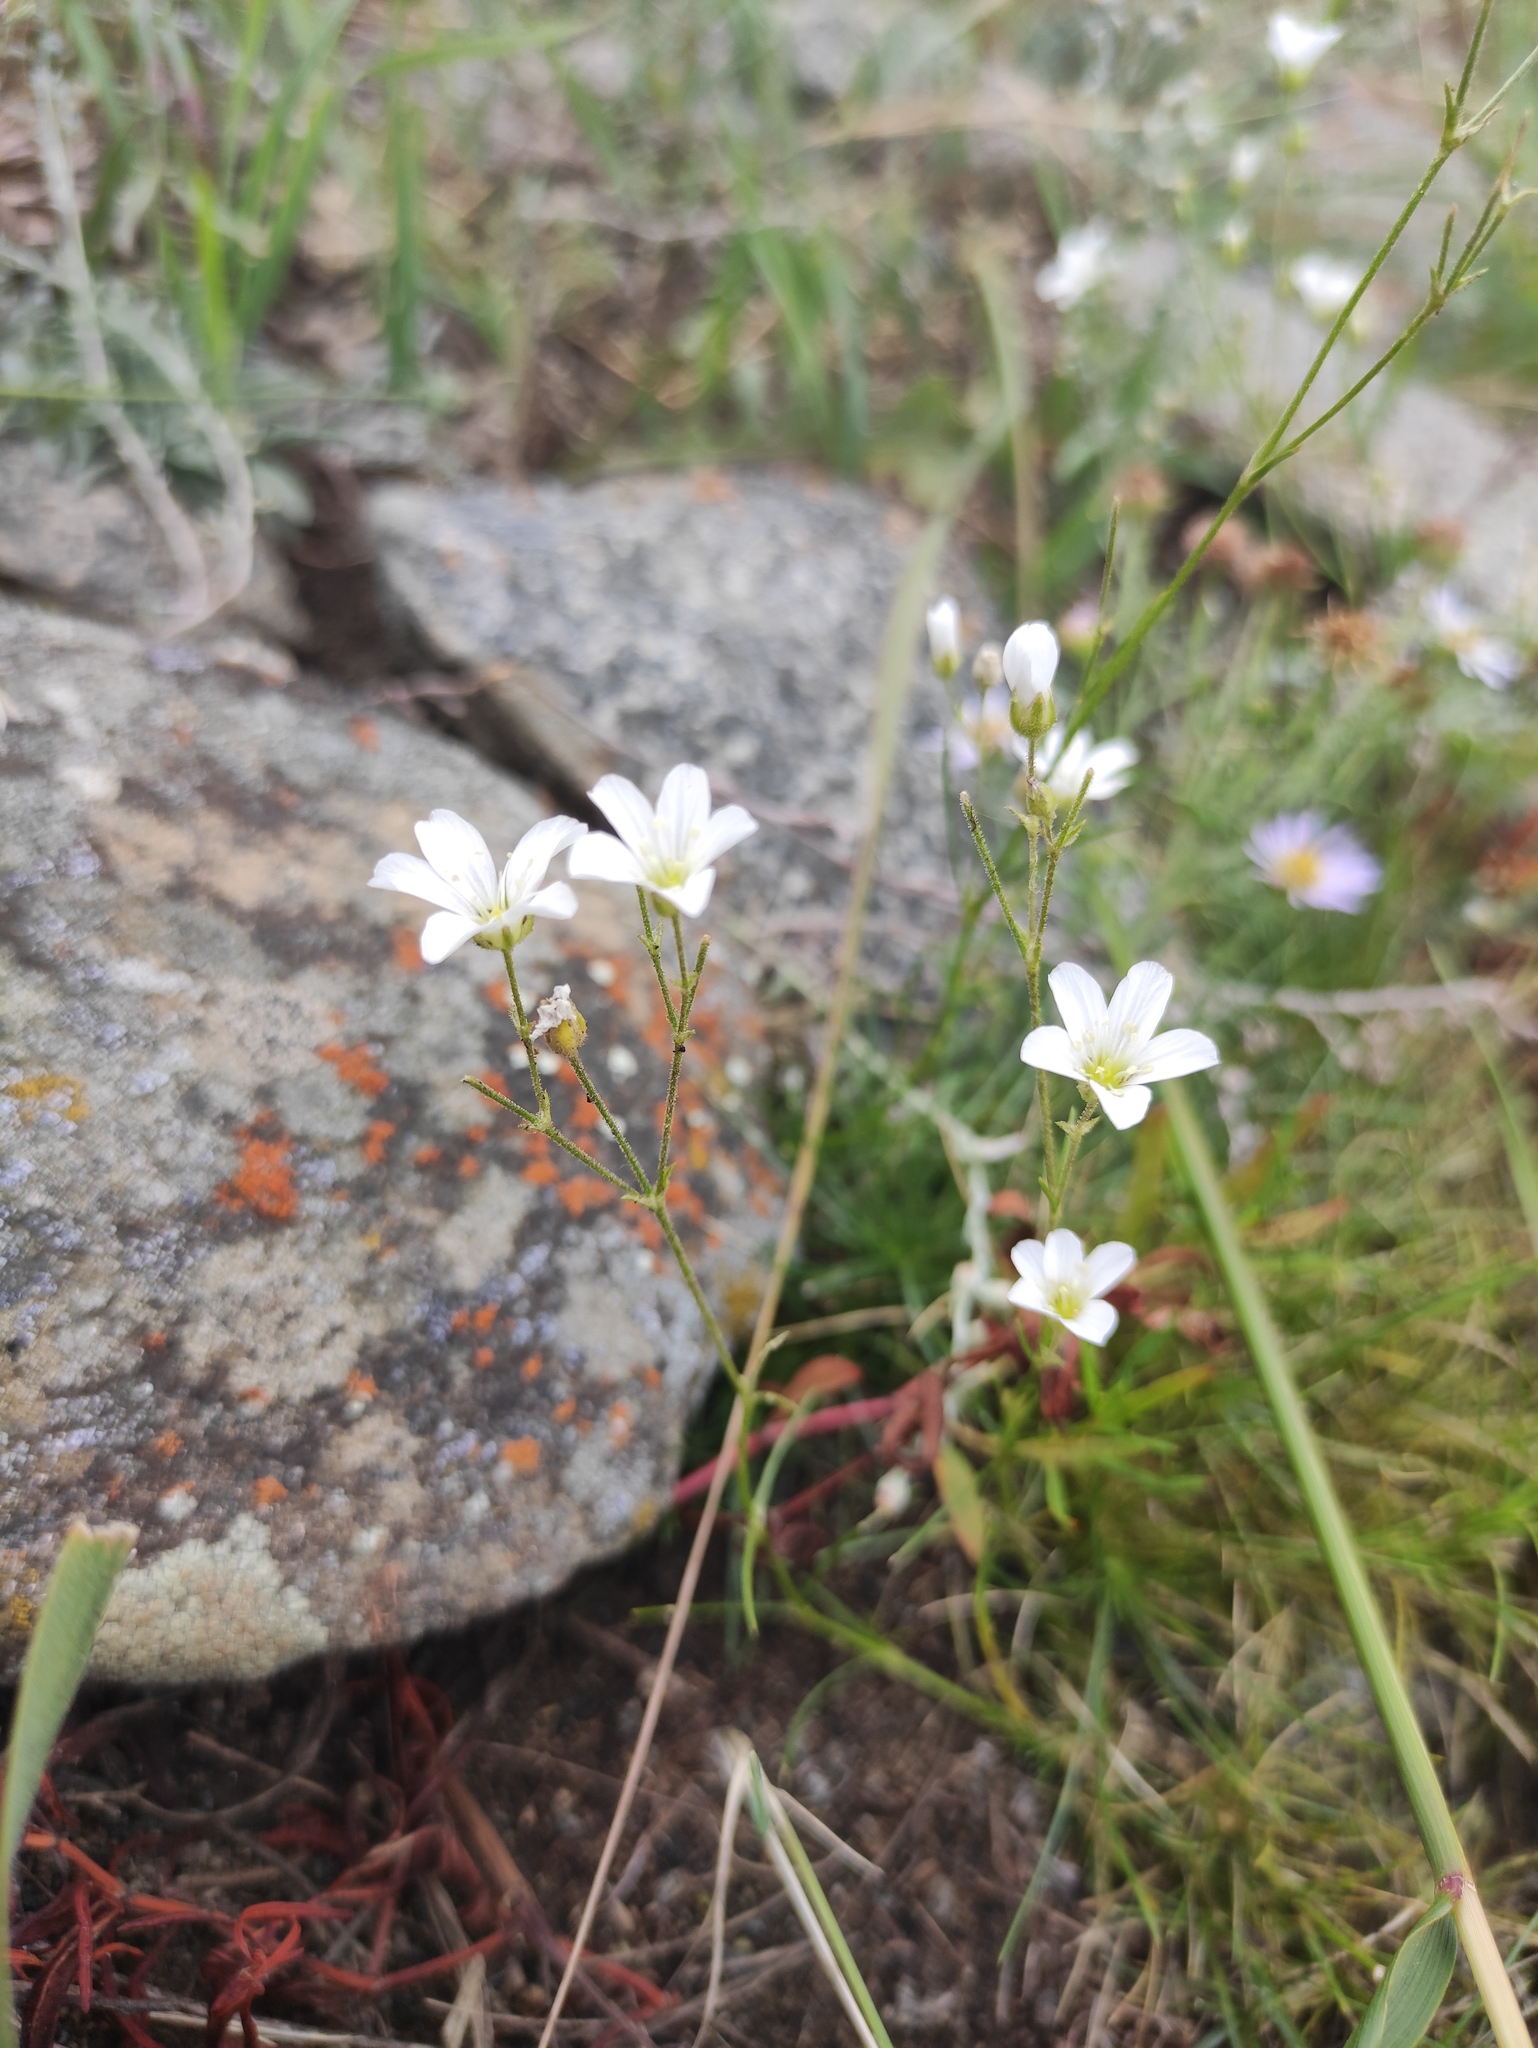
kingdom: Plantae
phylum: Tracheophyta
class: Magnoliopsida
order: Caryophyllales
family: Caryophyllaceae
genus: Eremogone
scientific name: Eremogone meyeri
